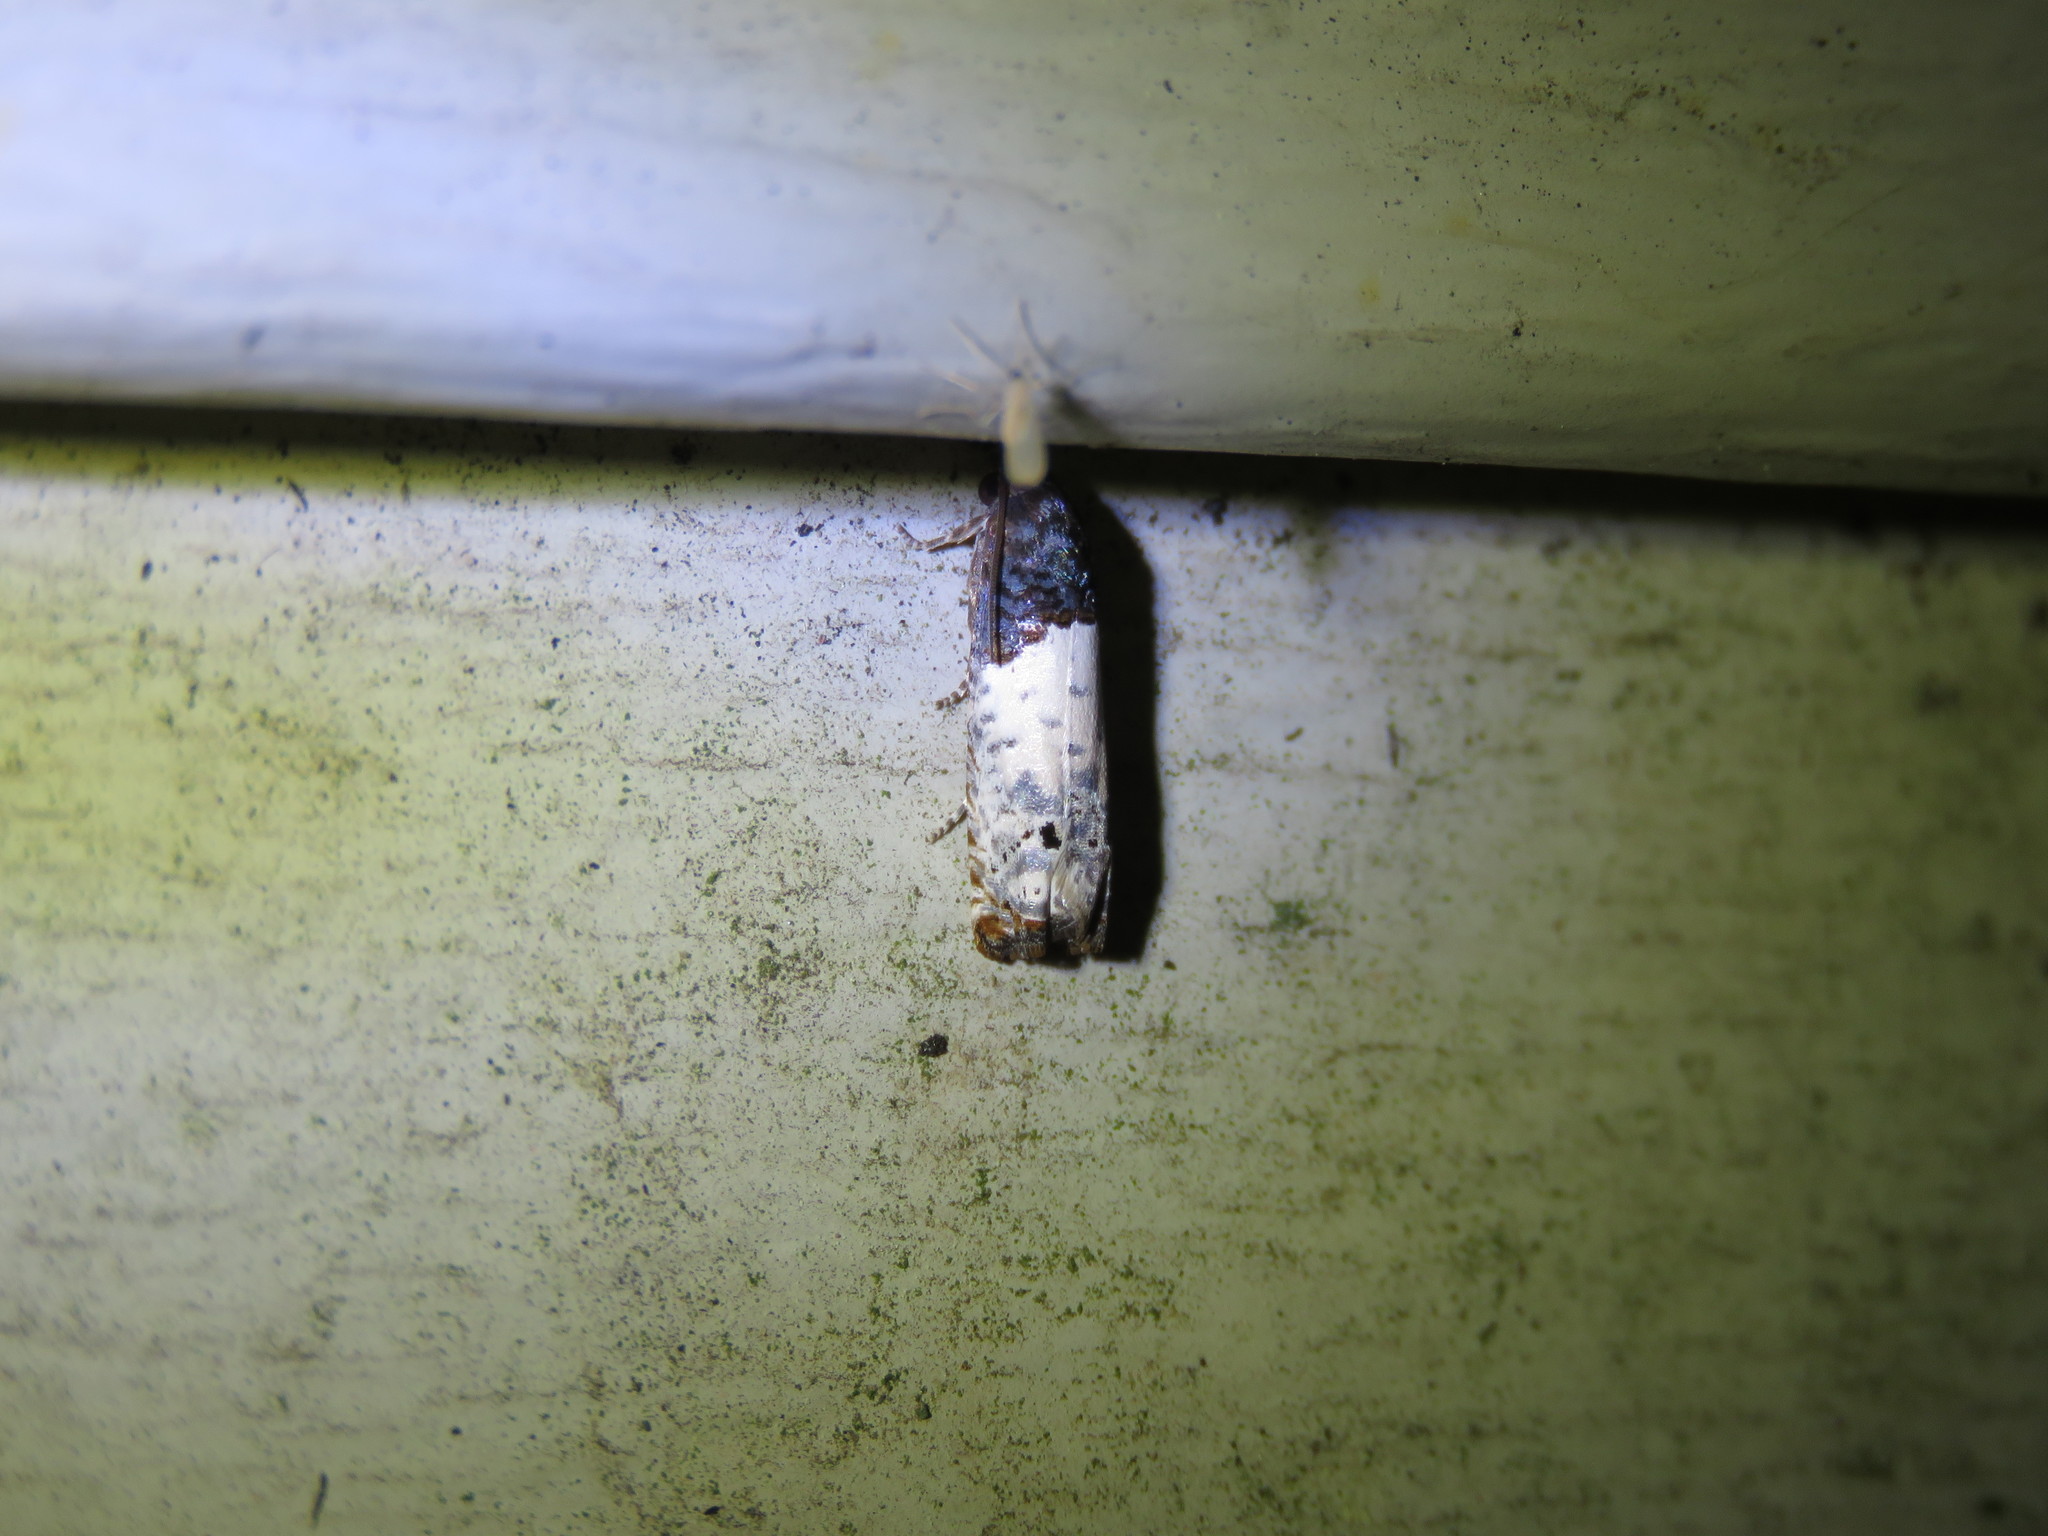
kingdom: Animalia
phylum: Arthropoda
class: Insecta
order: Lepidoptera
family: Tortricidae
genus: Epiblema
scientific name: Epiblema scudderiana
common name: Goldenrod gall moth
